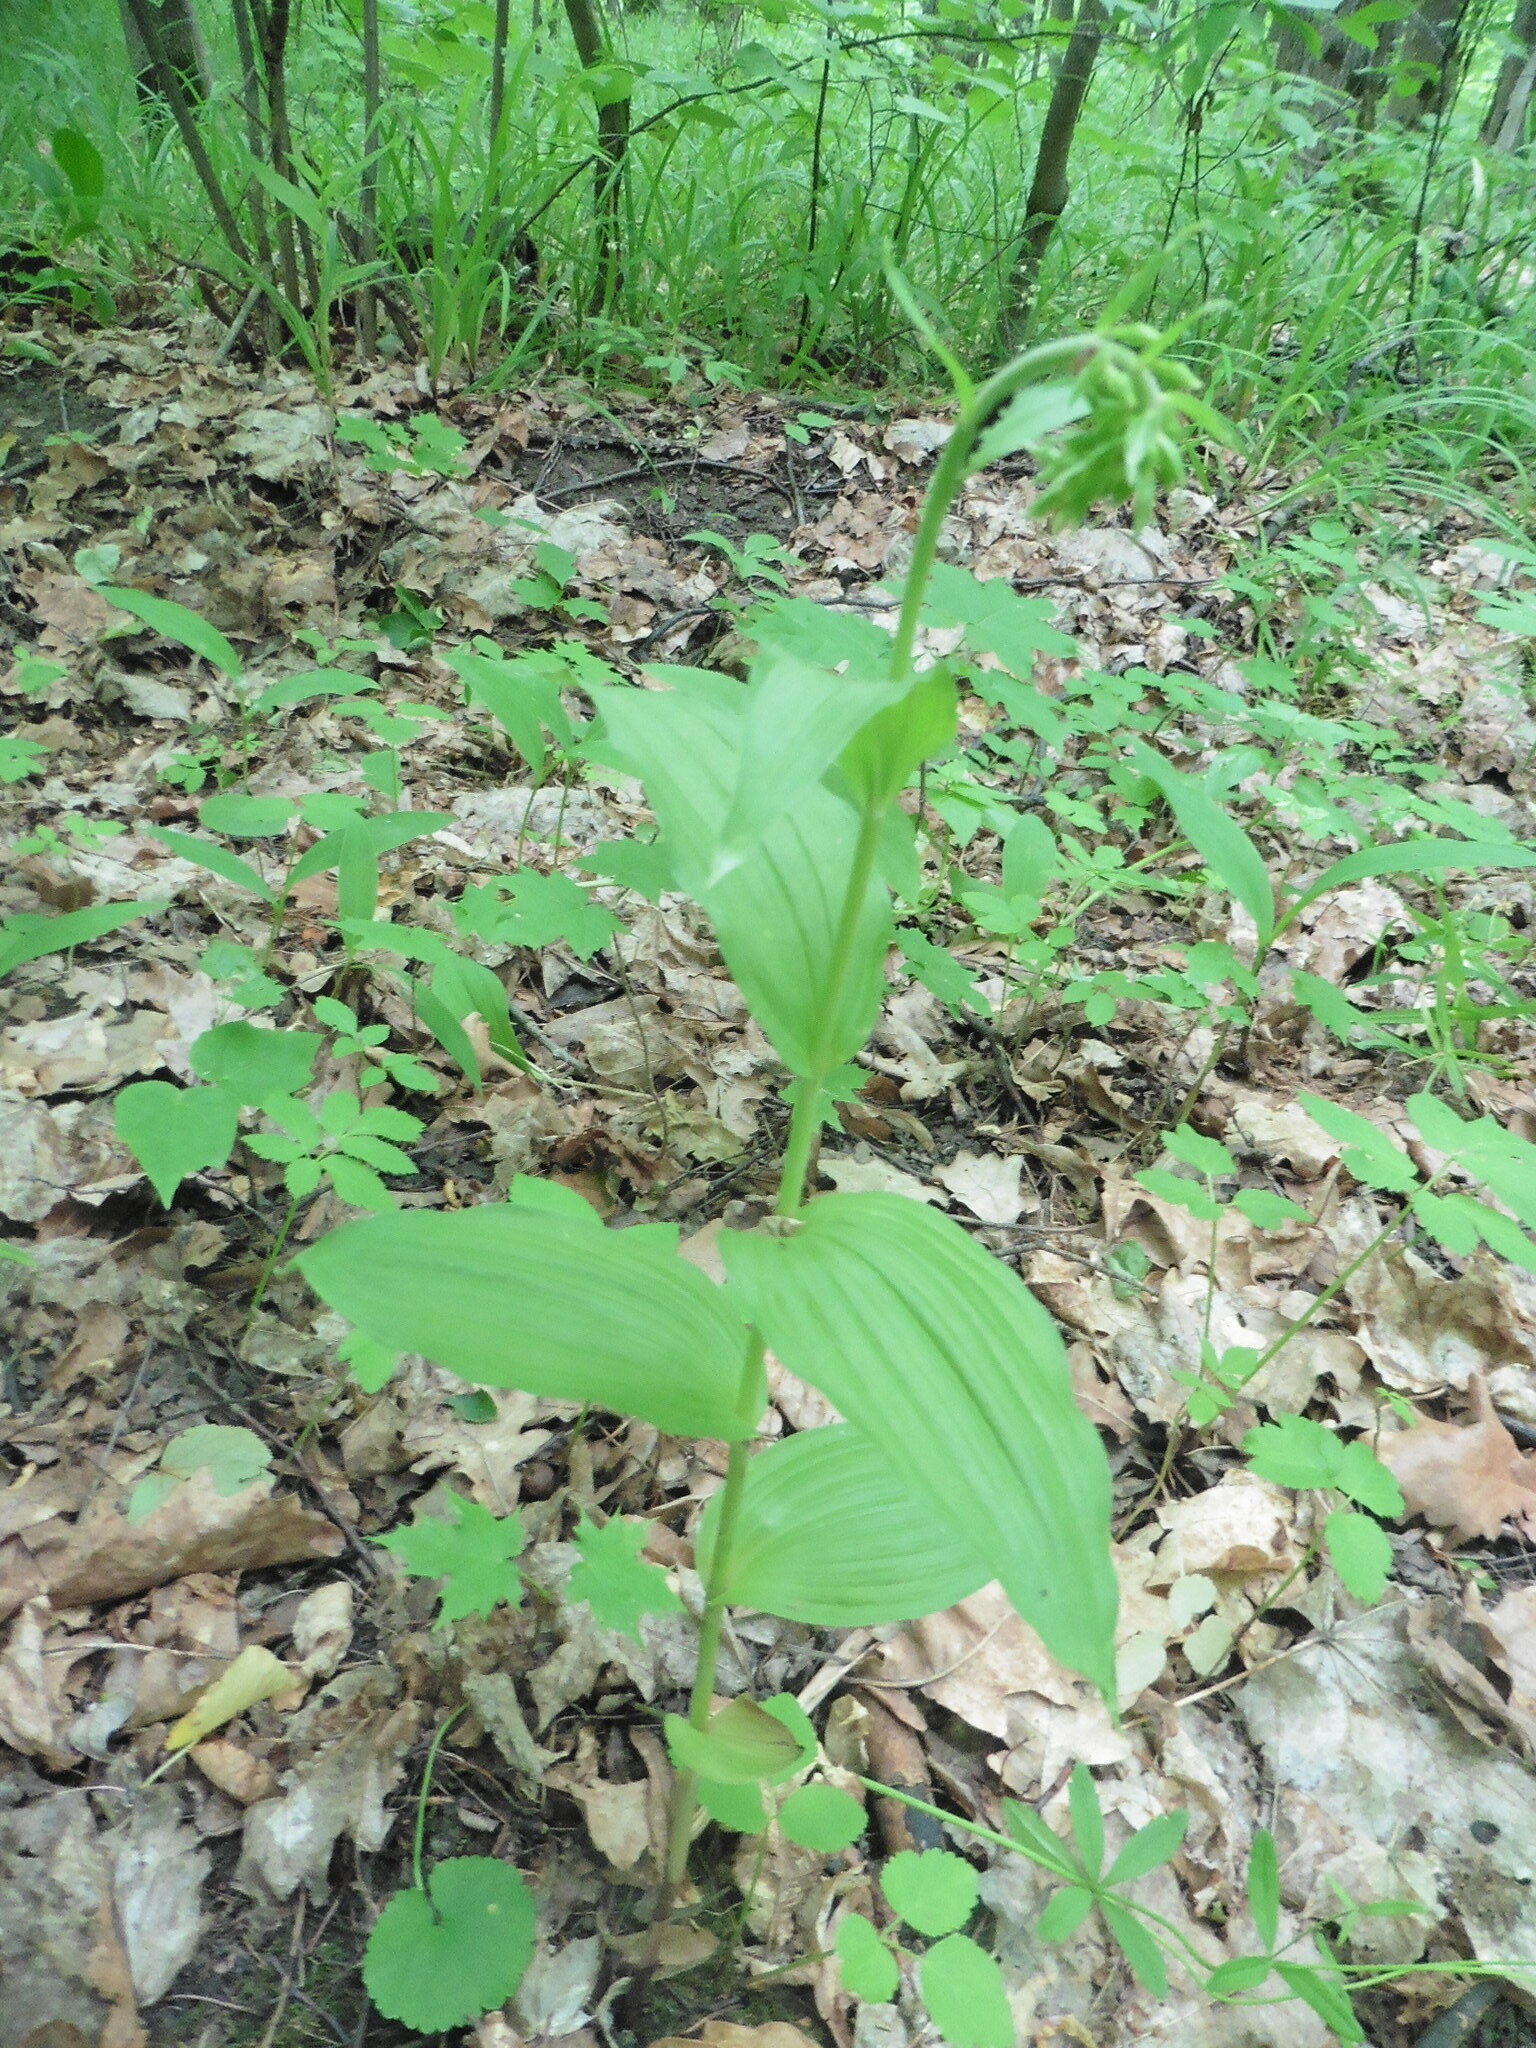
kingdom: Plantae
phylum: Tracheophyta
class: Liliopsida
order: Asparagales
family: Orchidaceae
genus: Epipactis
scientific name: Epipactis helleborine
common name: Broad-leaved helleborine
